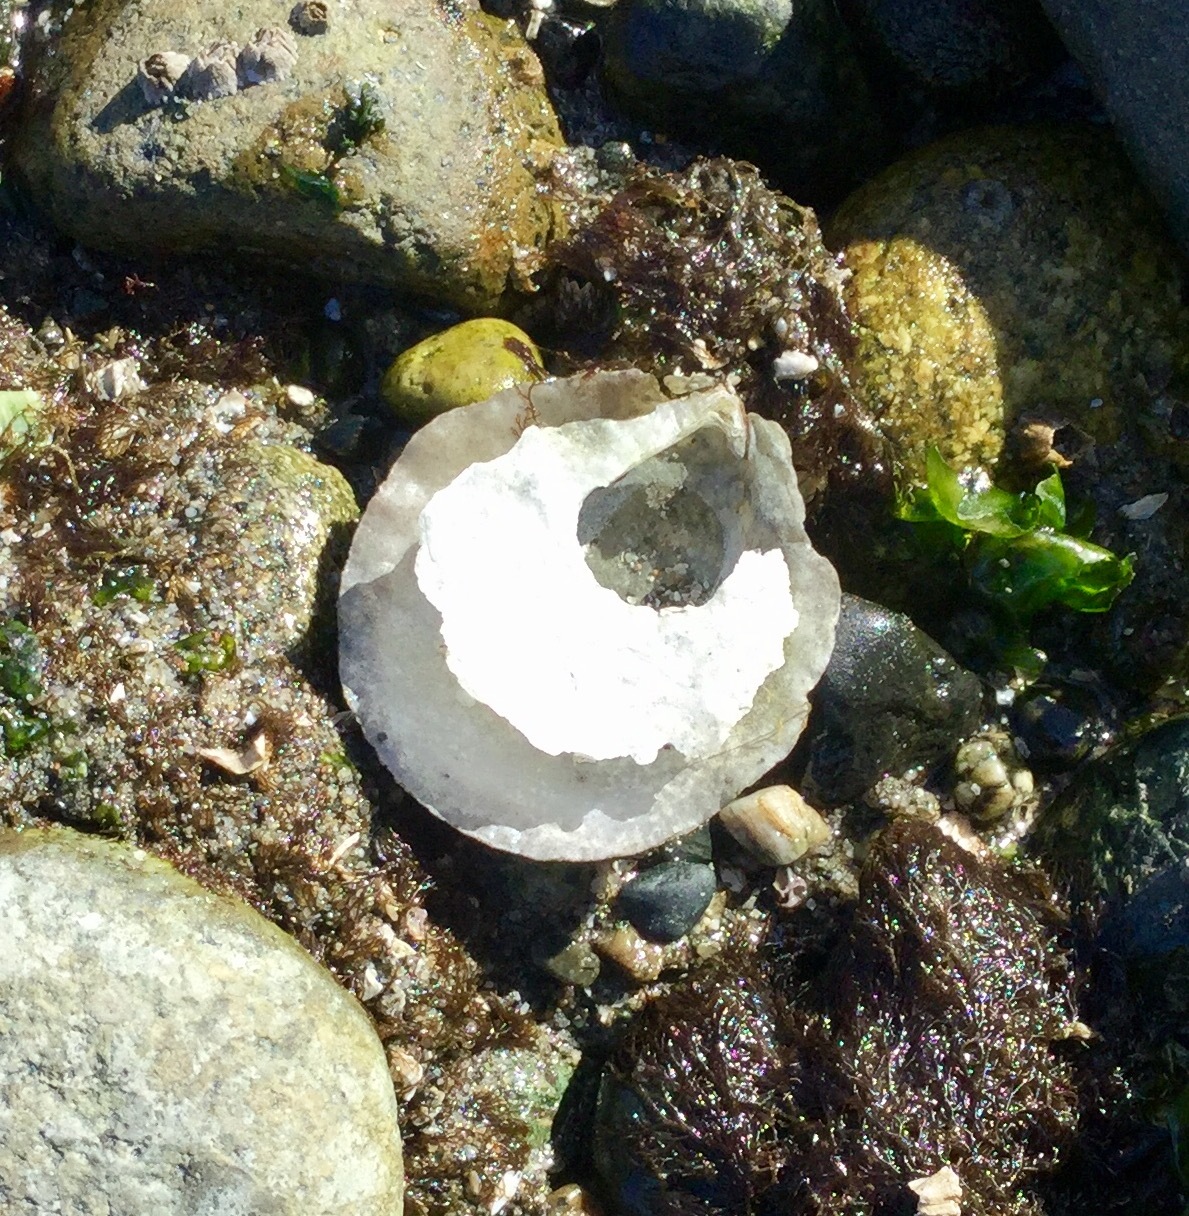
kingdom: Animalia
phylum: Mollusca
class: Bivalvia
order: Pectinida
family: Anomiidae
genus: Pododesmus
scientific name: Pododesmus macrochisma
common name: Alaska jingle
